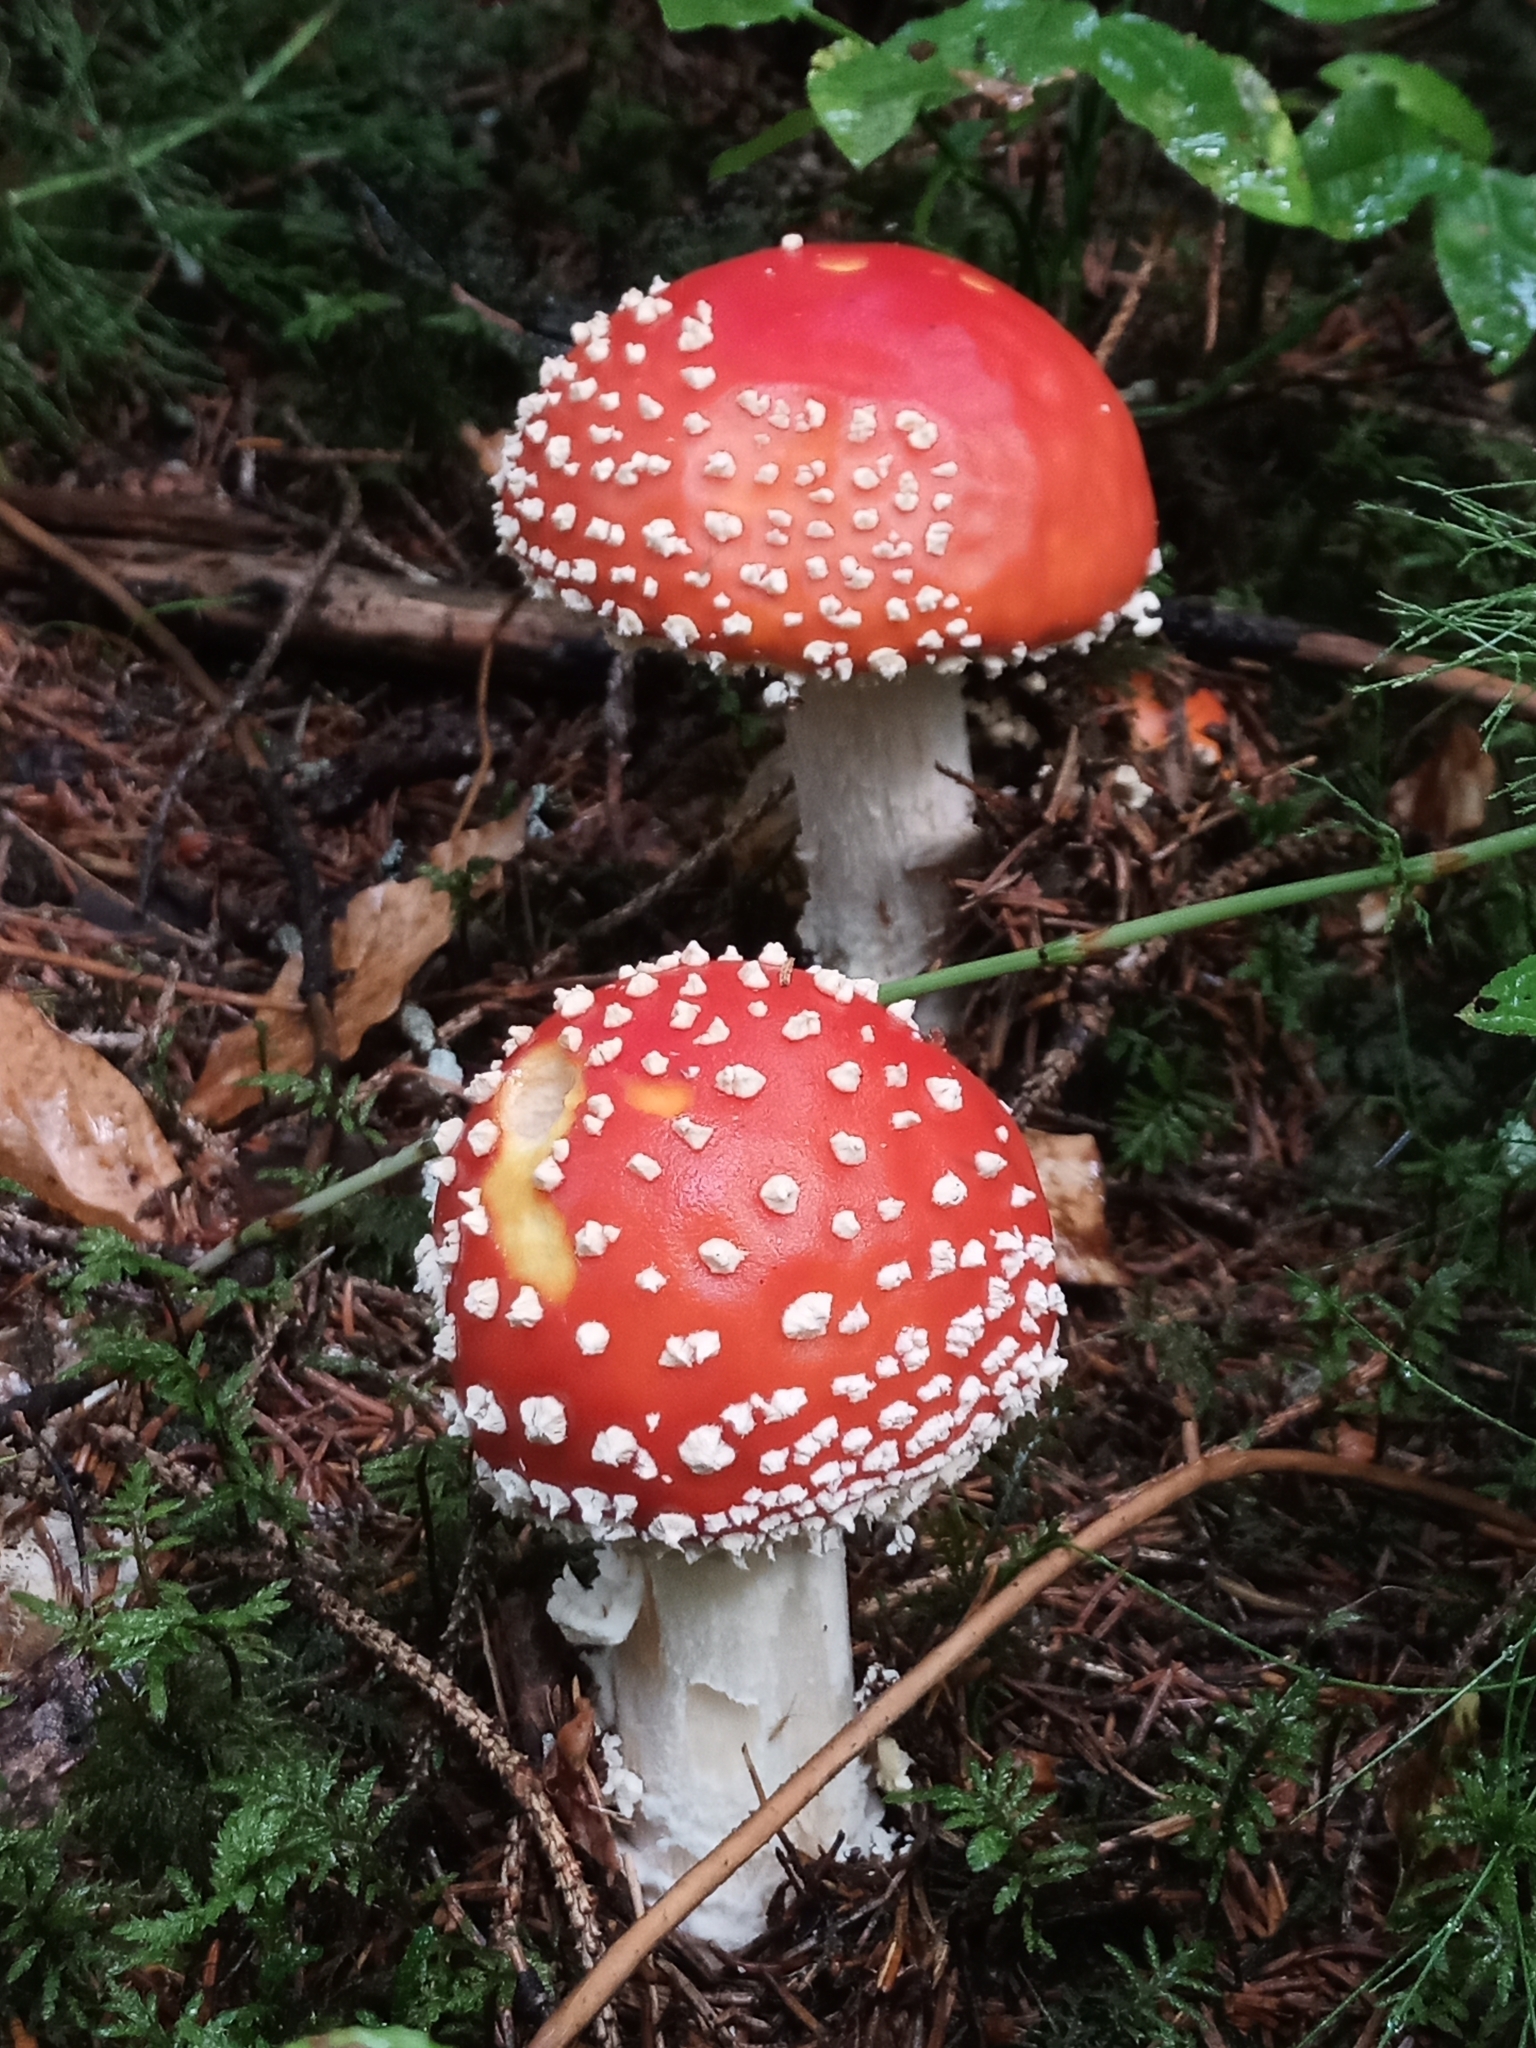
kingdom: Fungi
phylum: Basidiomycota
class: Agaricomycetes
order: Agaricales
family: Amanitaceae
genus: Amanita
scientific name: Amanita muscaria
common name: Fly agaric
